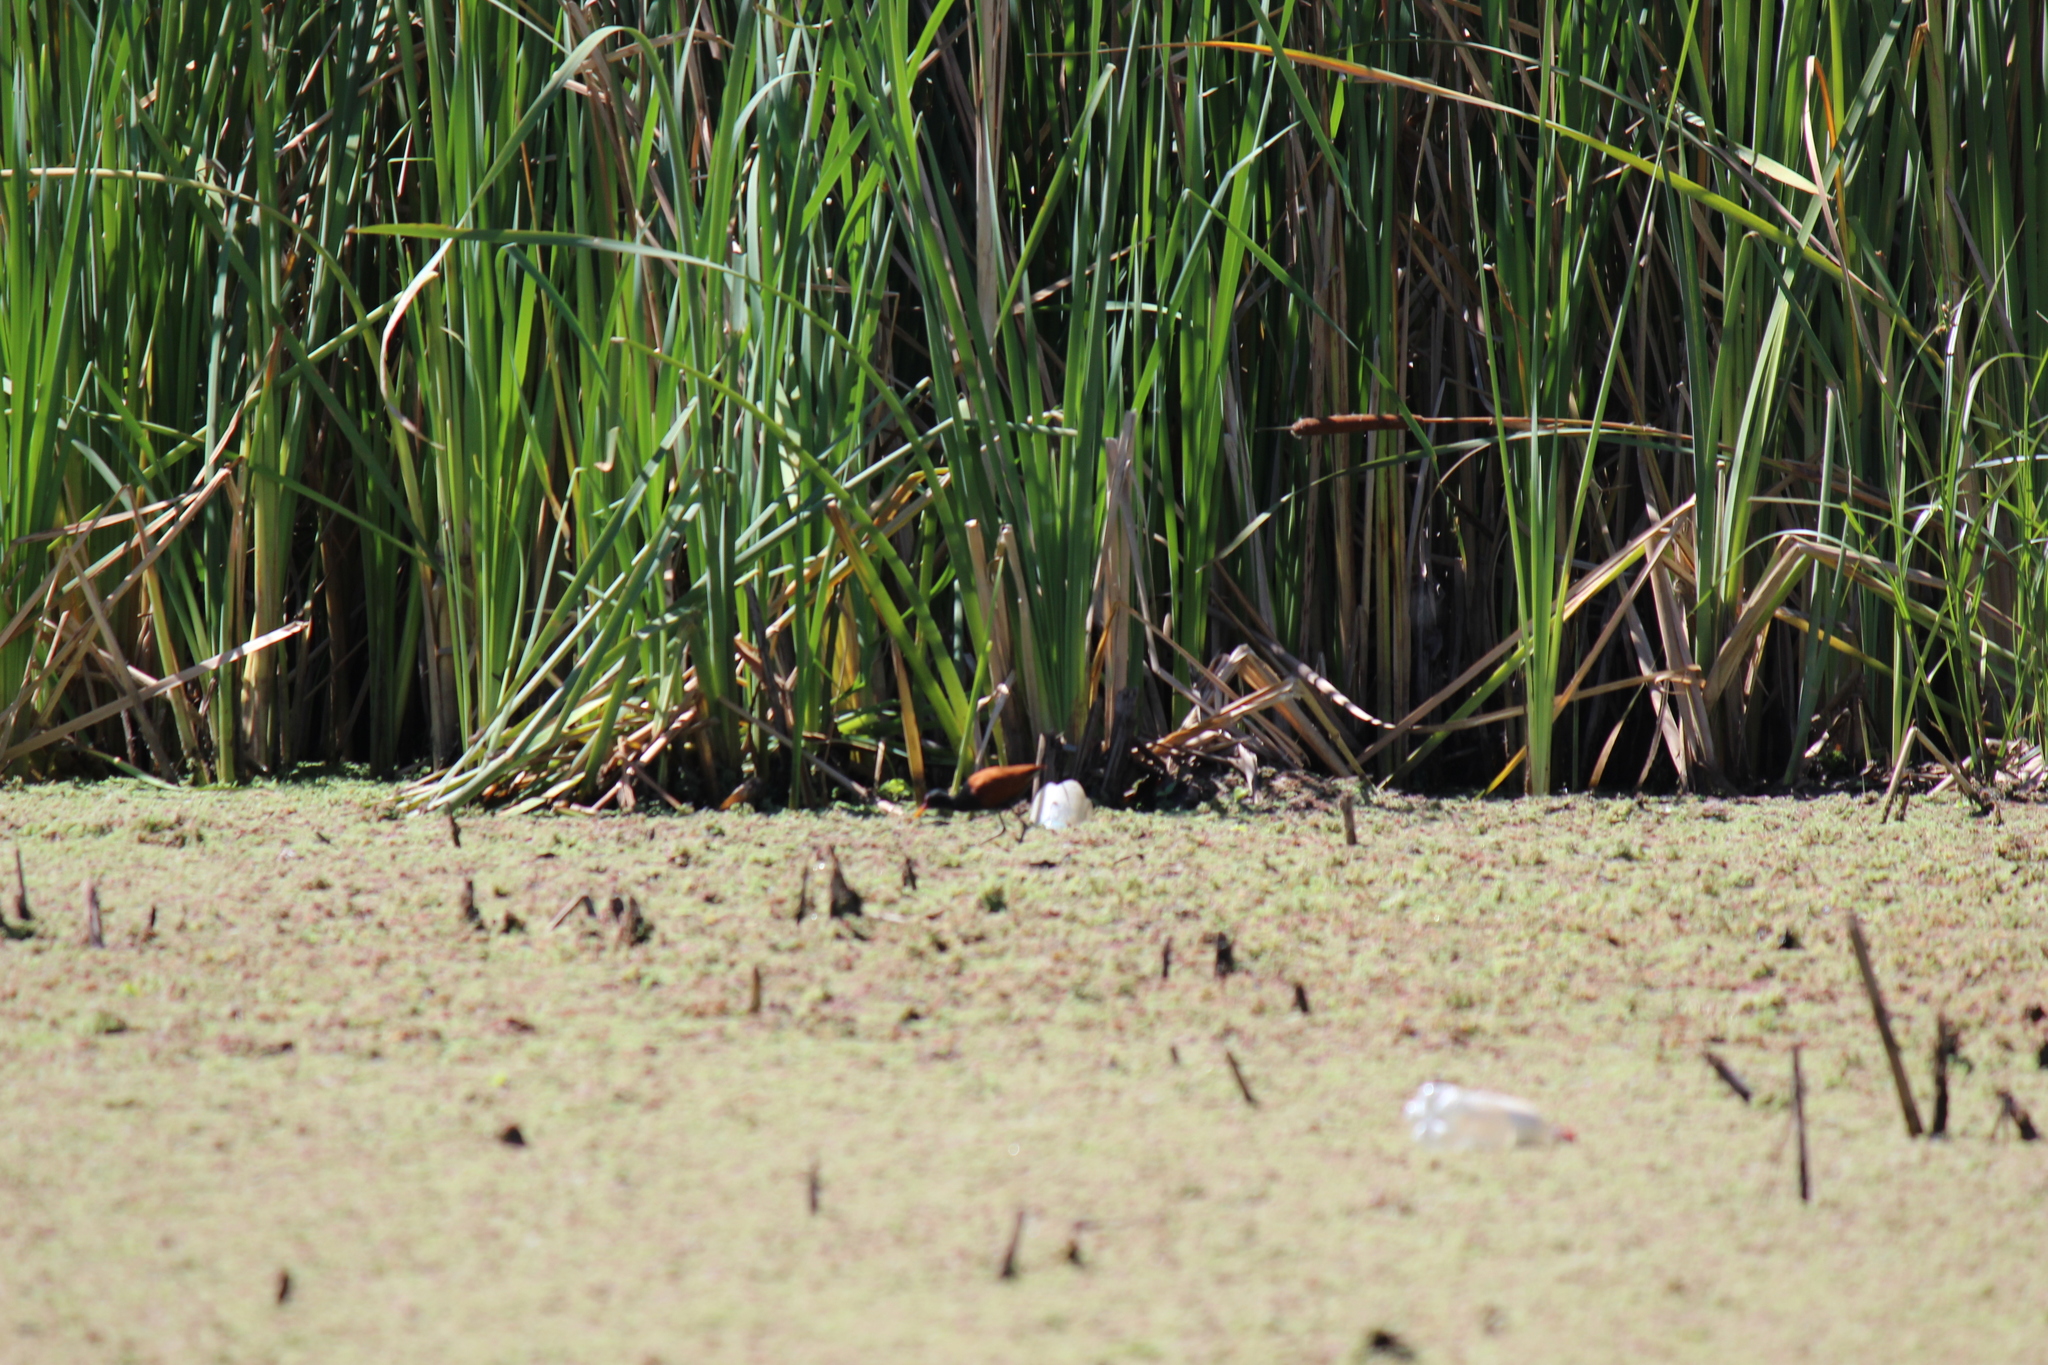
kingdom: Animalia
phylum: Chordata
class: Aves
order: Charadriiformes
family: Jacanidae
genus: Jacana
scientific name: Jacana jacana
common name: Wattled jacana
